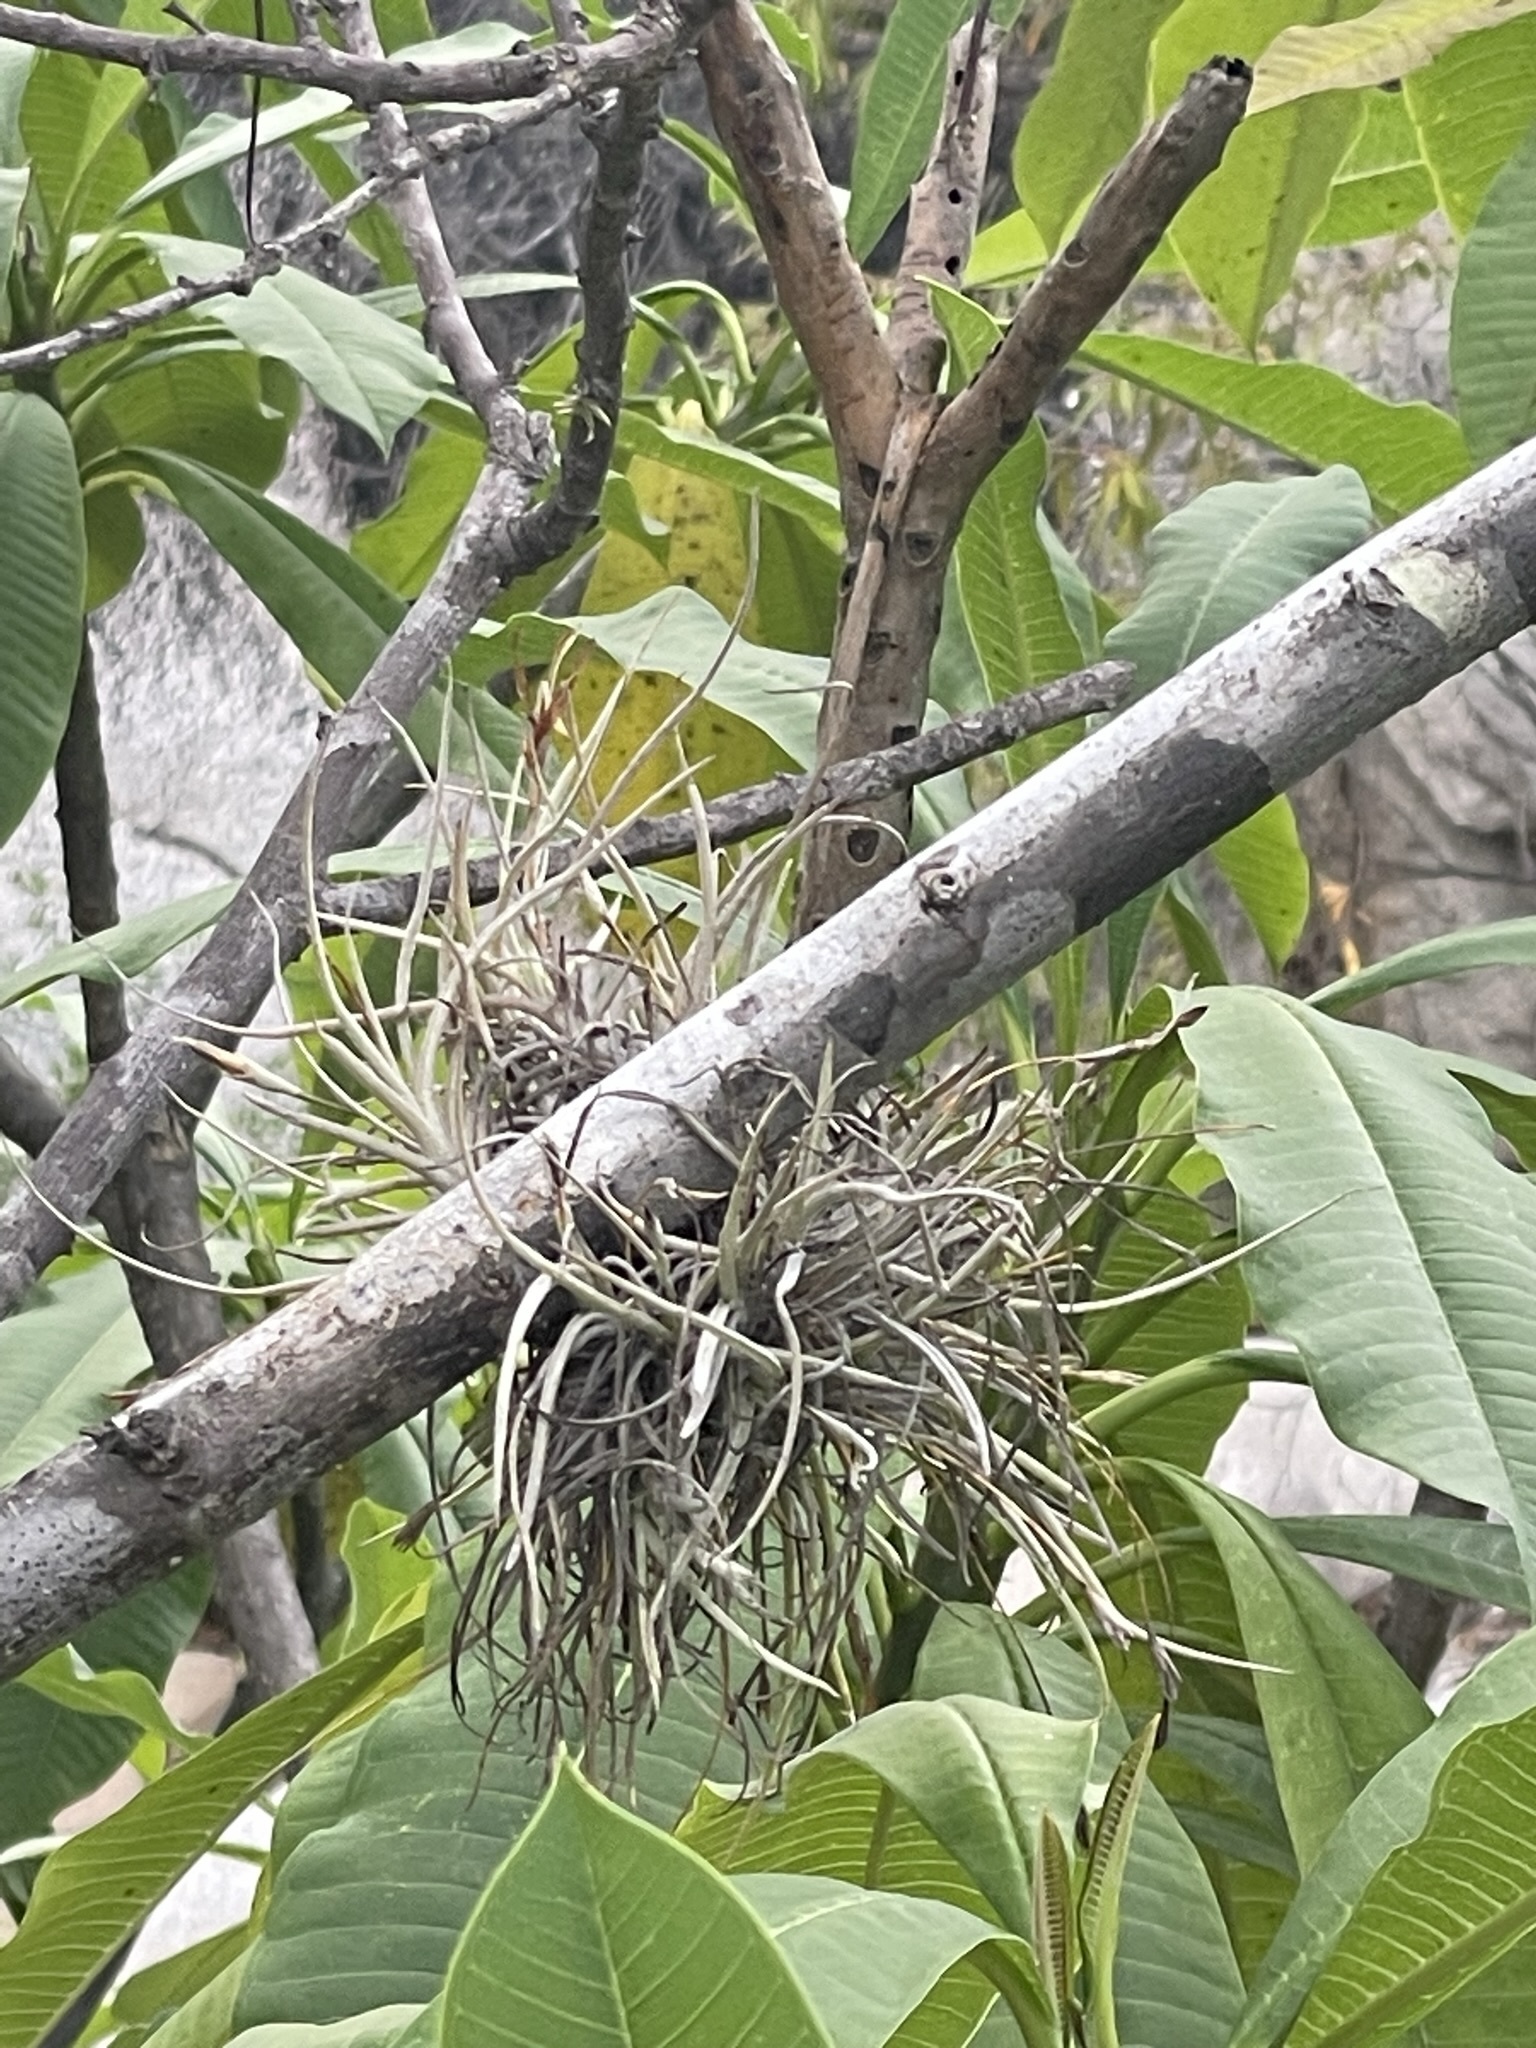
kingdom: Plantae
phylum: Tracheophyta
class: Liliopsida
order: Poales
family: Bromeliaceae
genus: Tillandsia
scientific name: Tillandsia recurvata
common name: Small ballmoss
